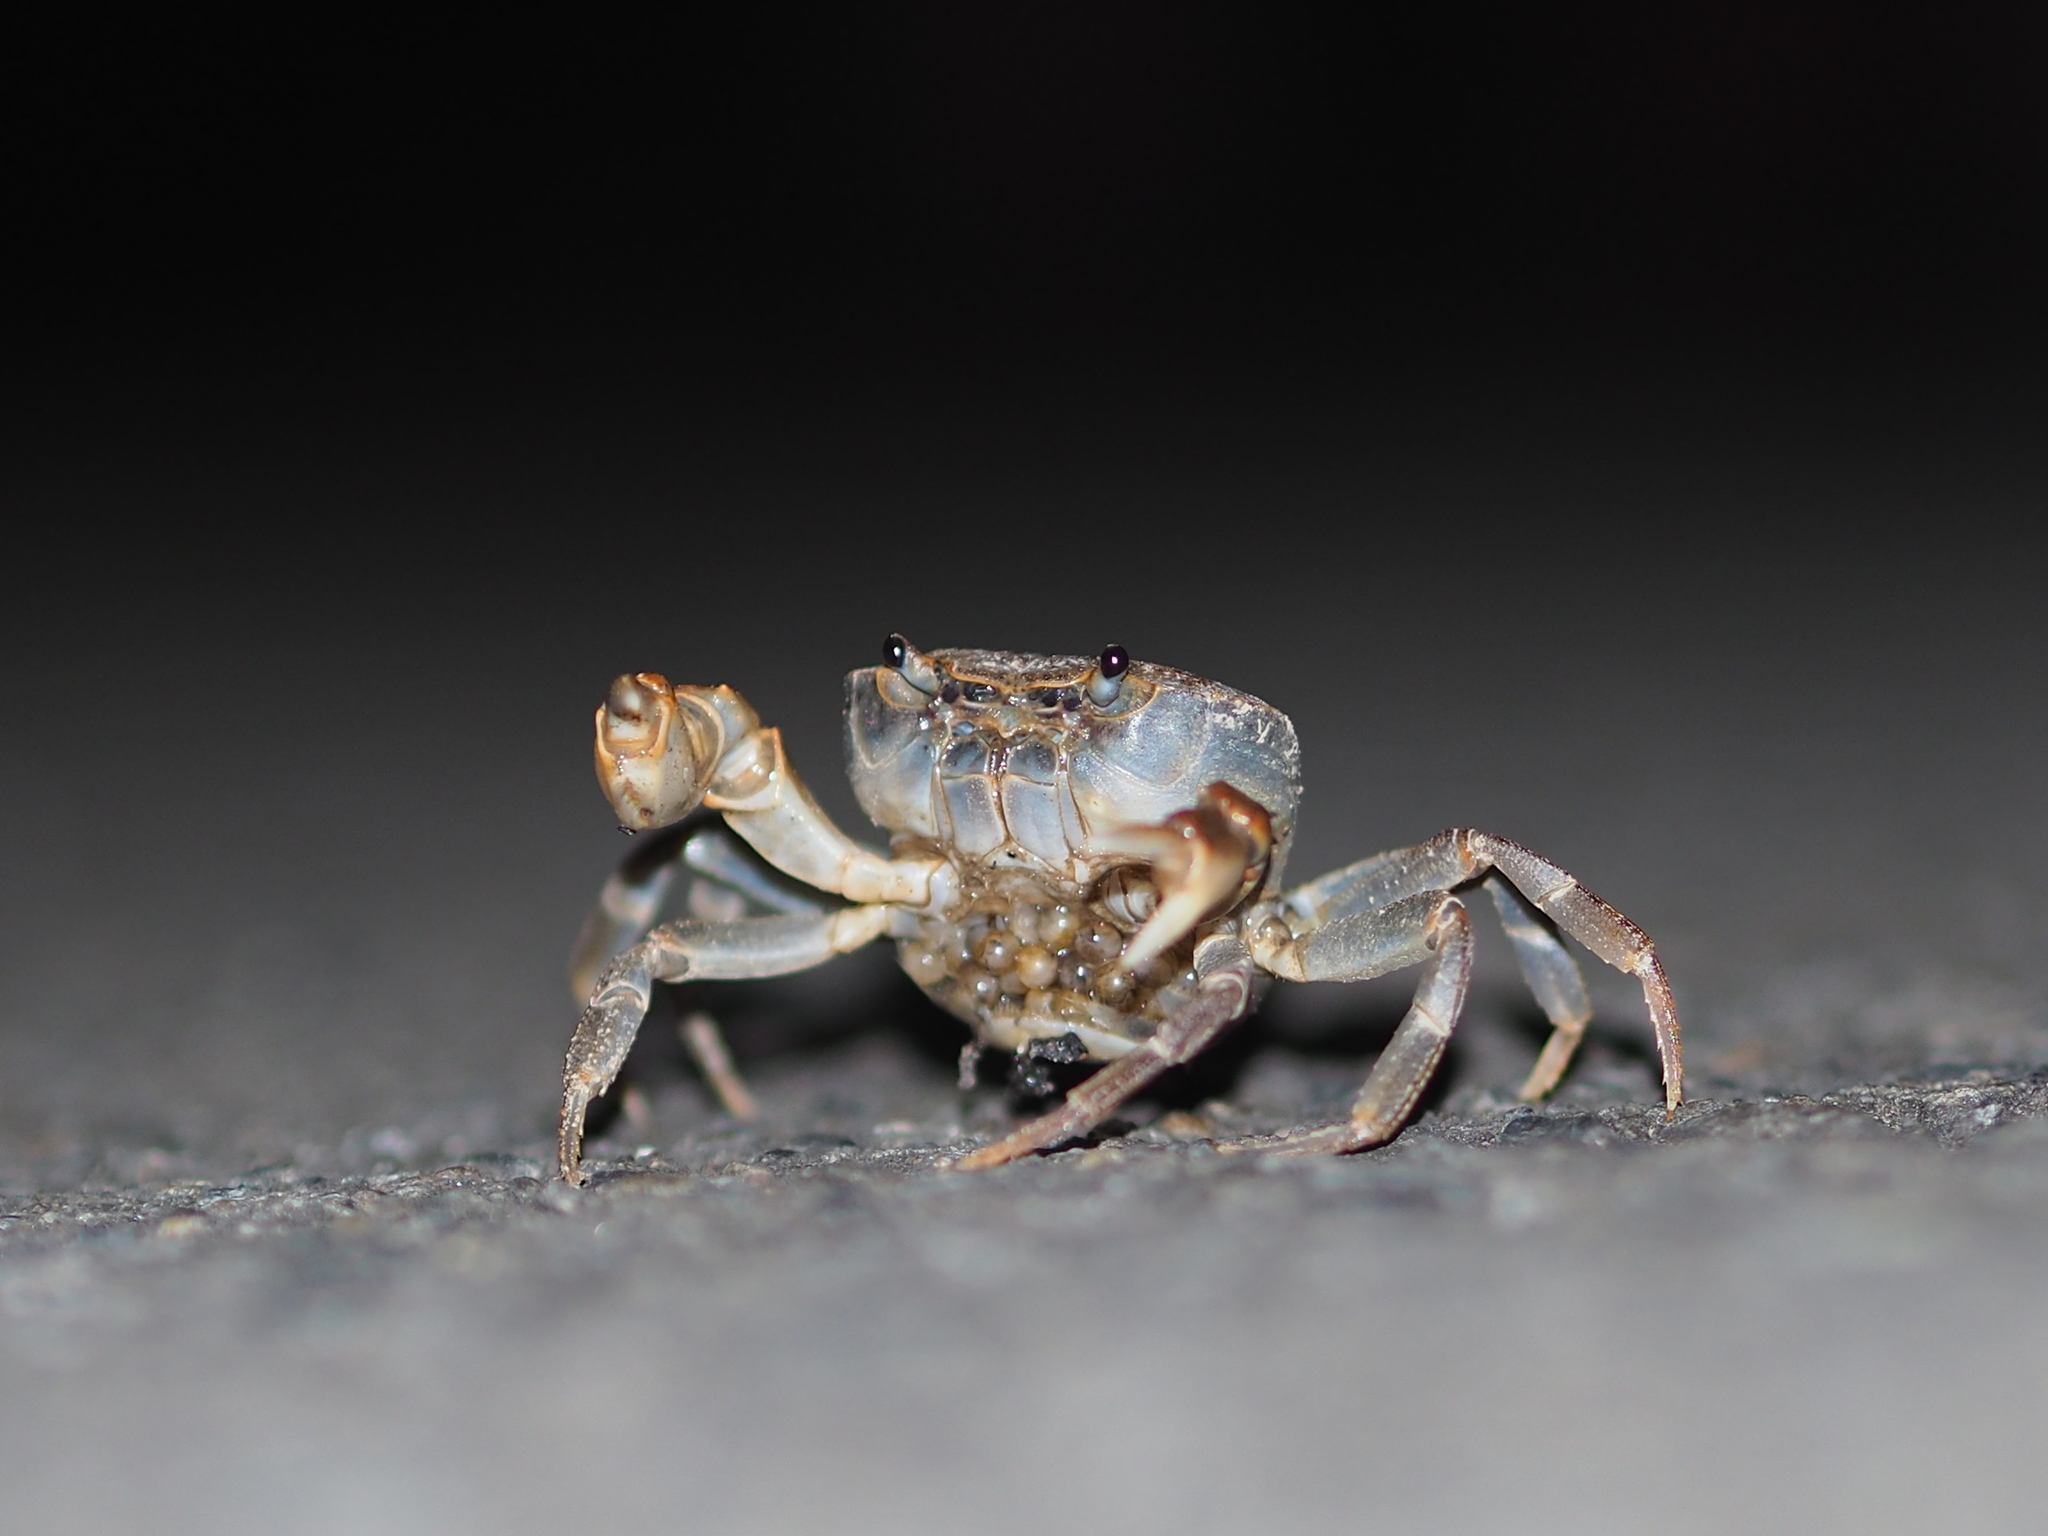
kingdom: Animalia
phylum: Arthropoda
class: Malacostraca
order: Decapoda
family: Potamidae
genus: Geothelphusa
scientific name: Geothelphusa olea
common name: Yellow-green crab
